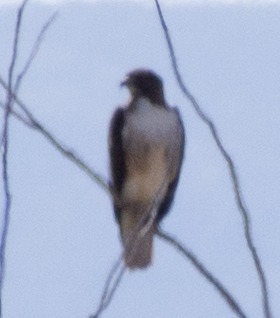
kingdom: Animalia
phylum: Chordata
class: Aves
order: Accipitriformes
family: Accipitridae
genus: Buteo
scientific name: Buteo jamaicensis
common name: Red-tailed hawk
